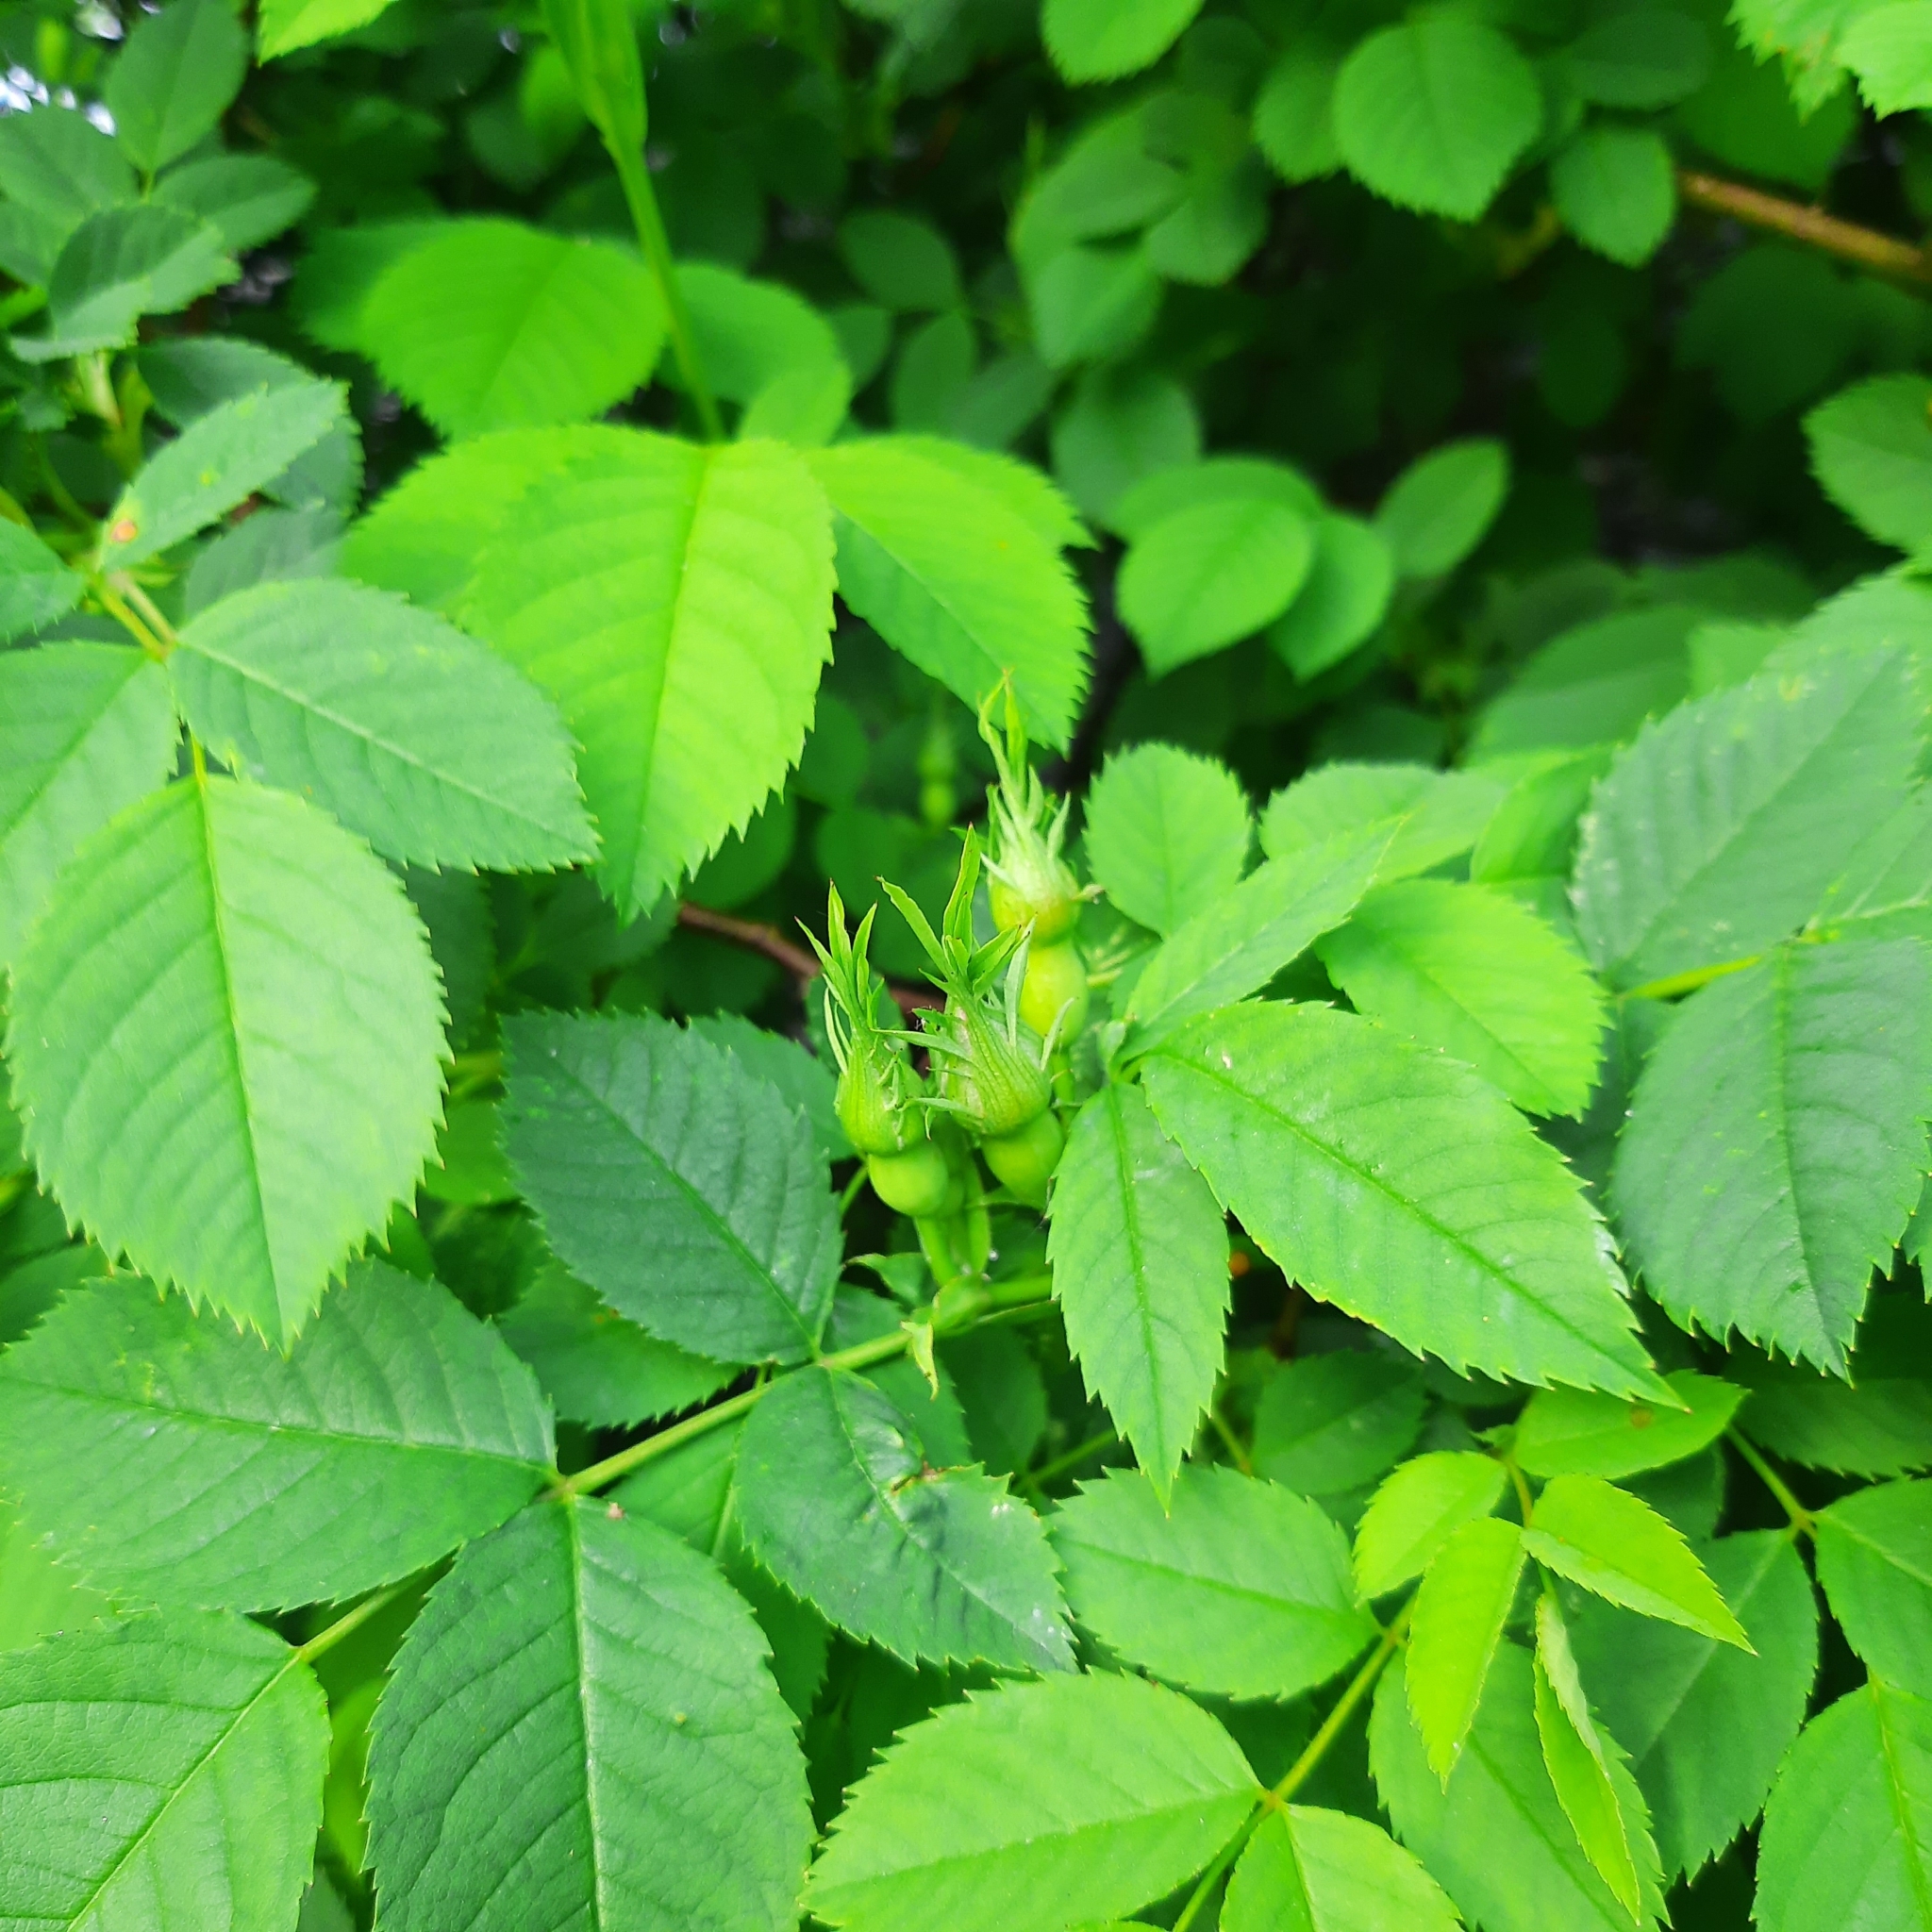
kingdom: Plantae
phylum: Tracheophyta
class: Magnoliopsida
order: Rosales
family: Rosaceae
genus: Rosa
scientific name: Rosa canina
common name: Dog rose
